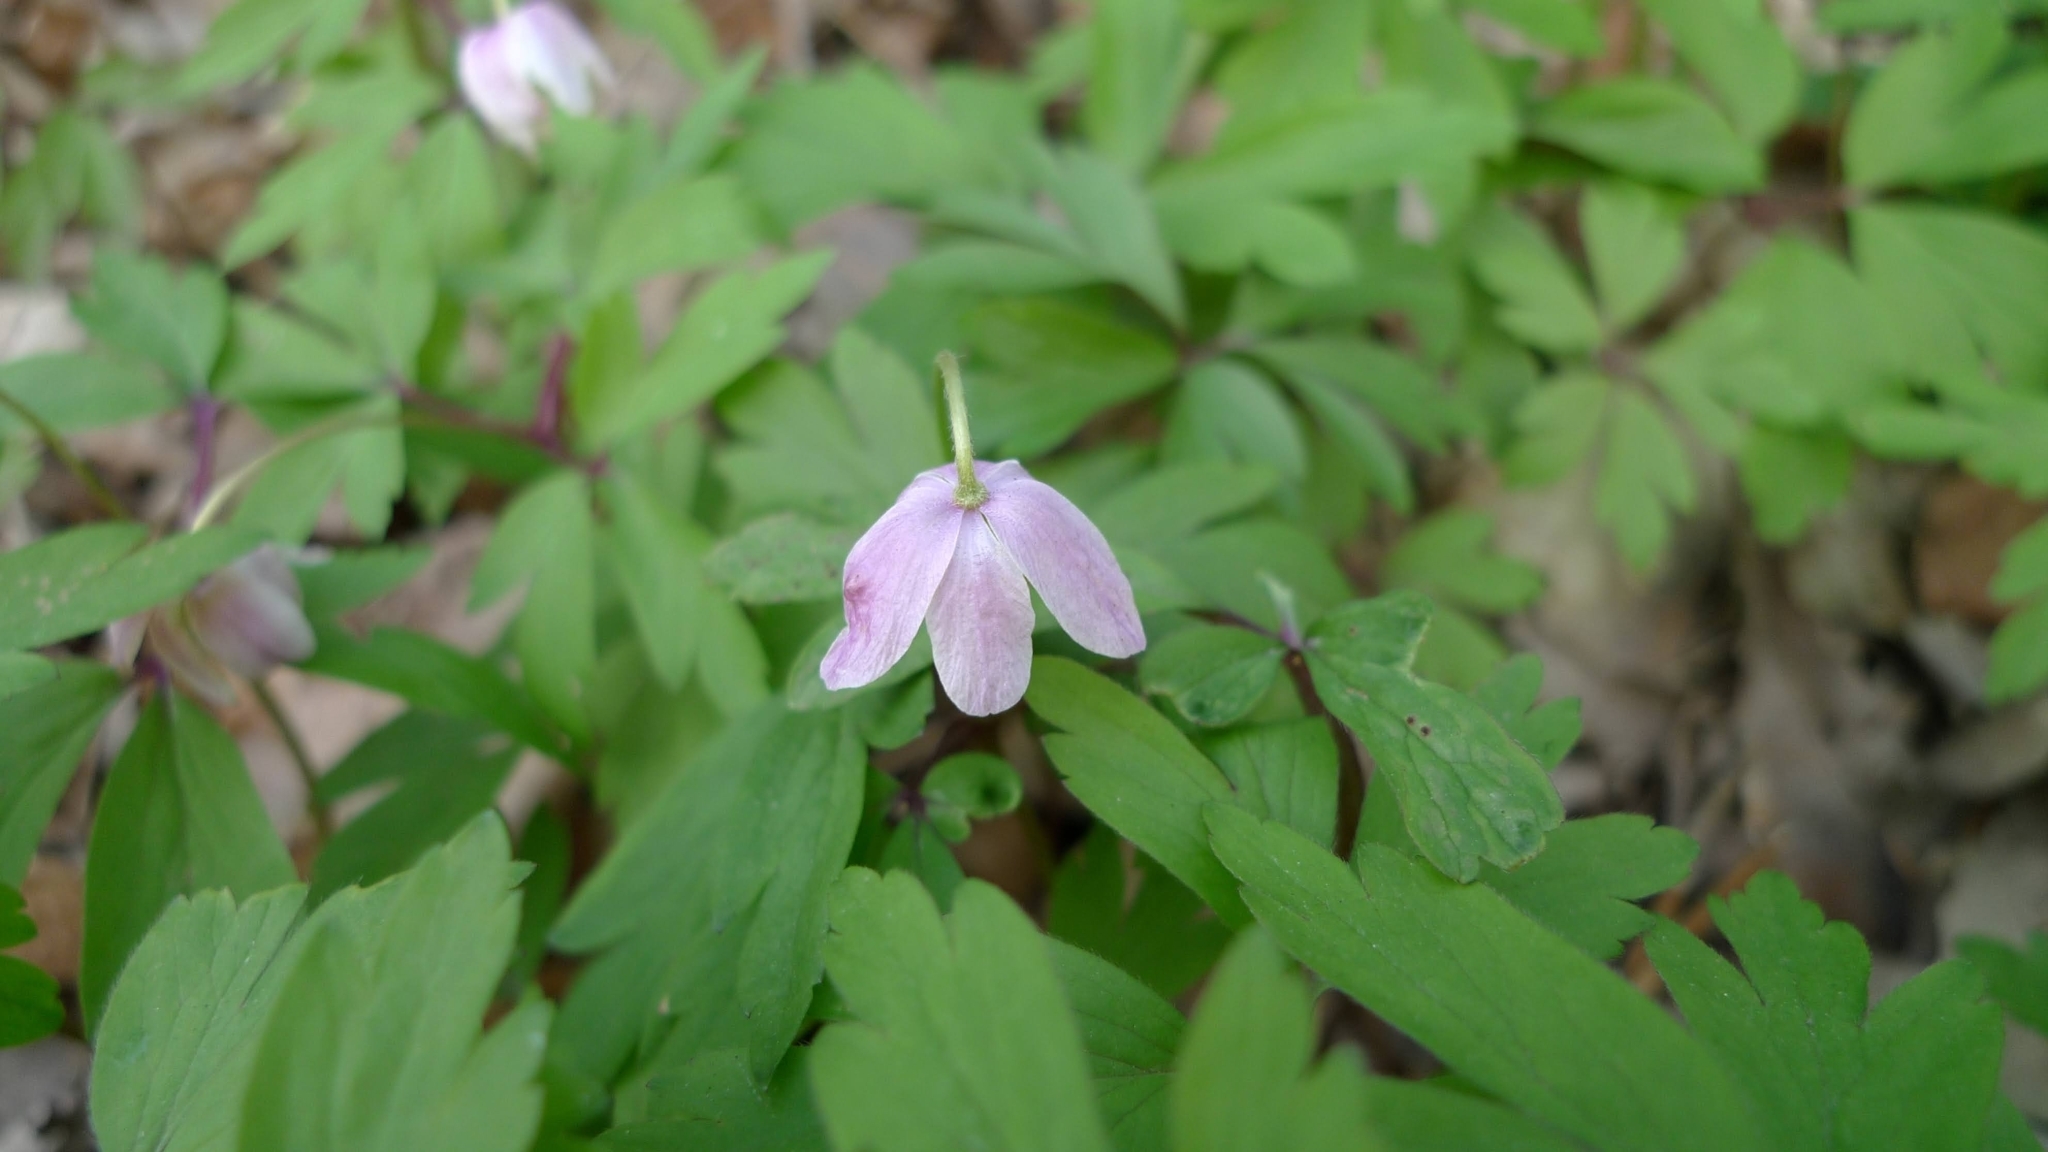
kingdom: Plantae
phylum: Tracheophyta
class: Magnoliopsida
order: Ranunculales
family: Ranunculaceae
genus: Anemone
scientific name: Anemone nemorosa
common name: Wood anemone
